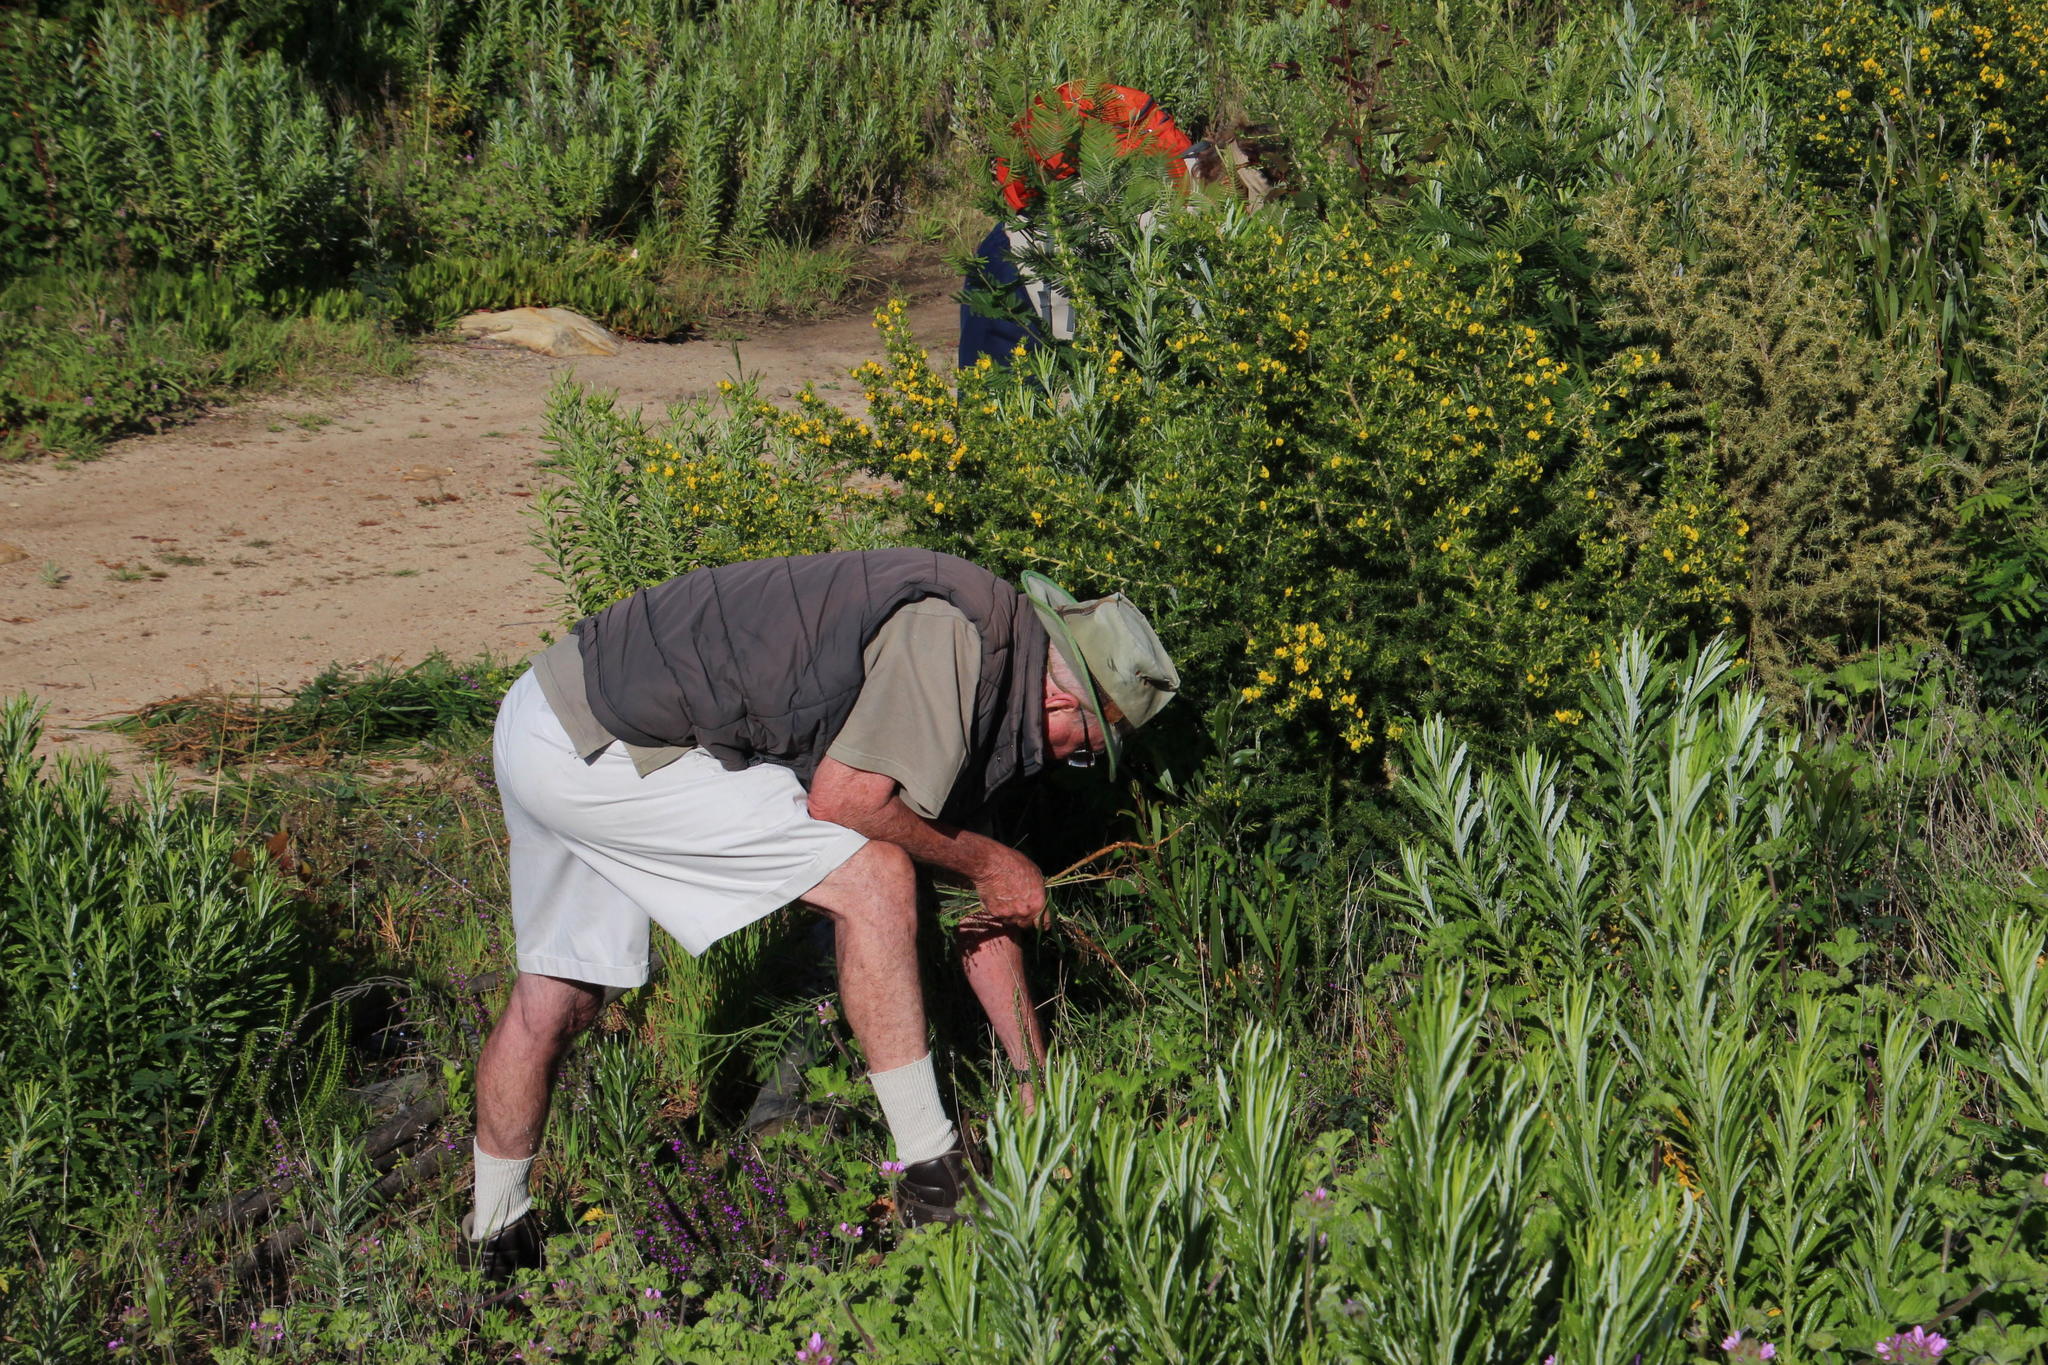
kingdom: Plantae
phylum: Tracheophyta
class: Magnoliopsida
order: Fabales
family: Fabaceae
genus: Aspalathus
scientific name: Aspalathus astroites
